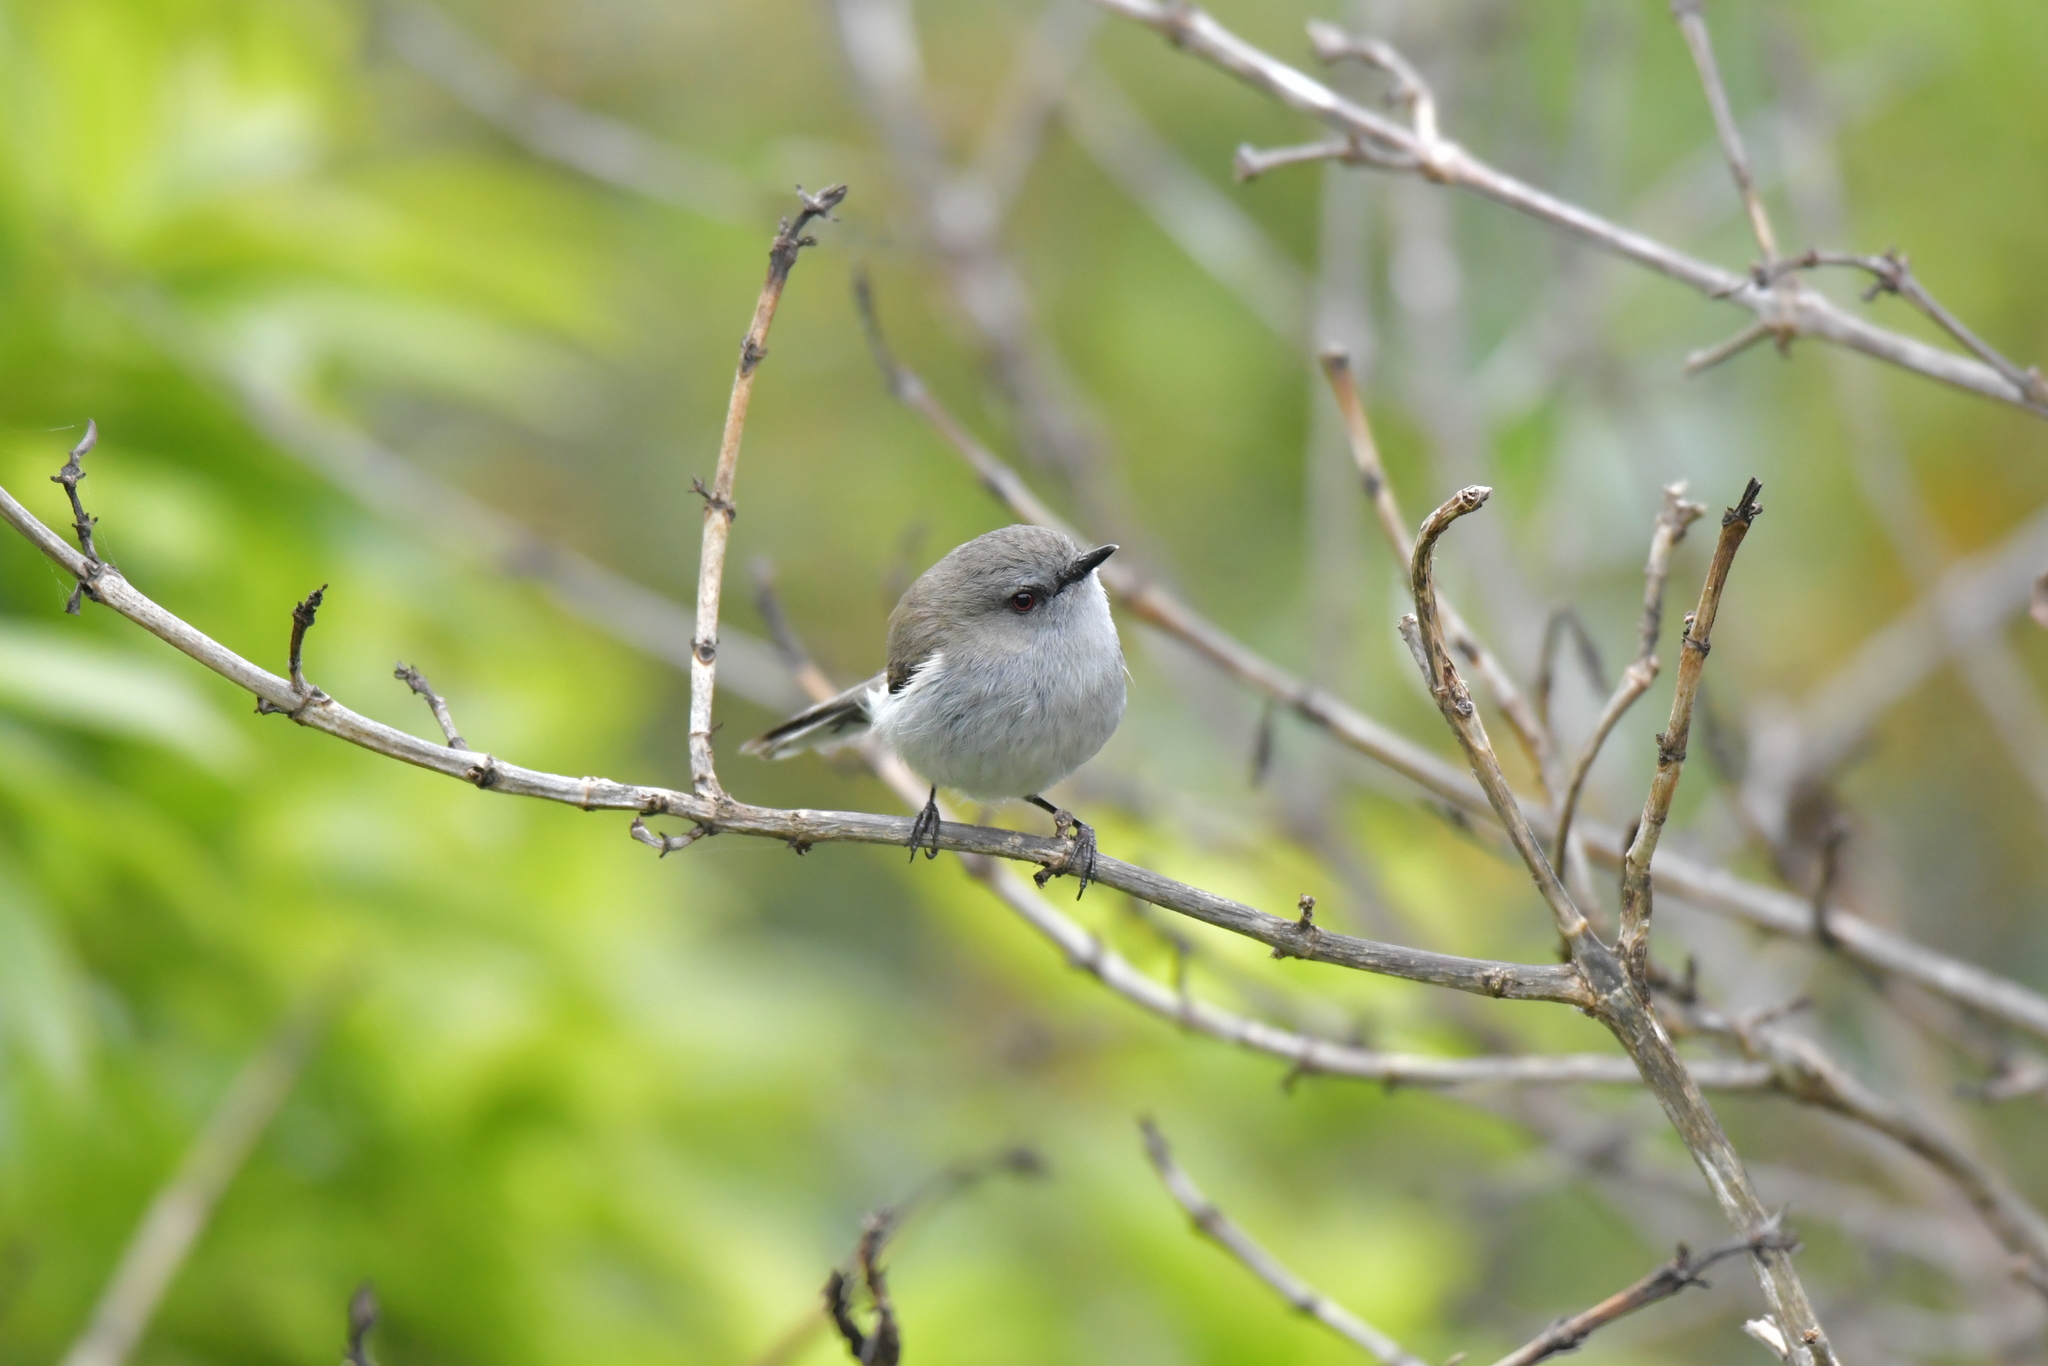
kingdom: Animalia
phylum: Chordata
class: Aves
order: Passeriformes
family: Acanthizidae
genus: Gerygone
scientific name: Gerygone igata
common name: Grey gerygone
